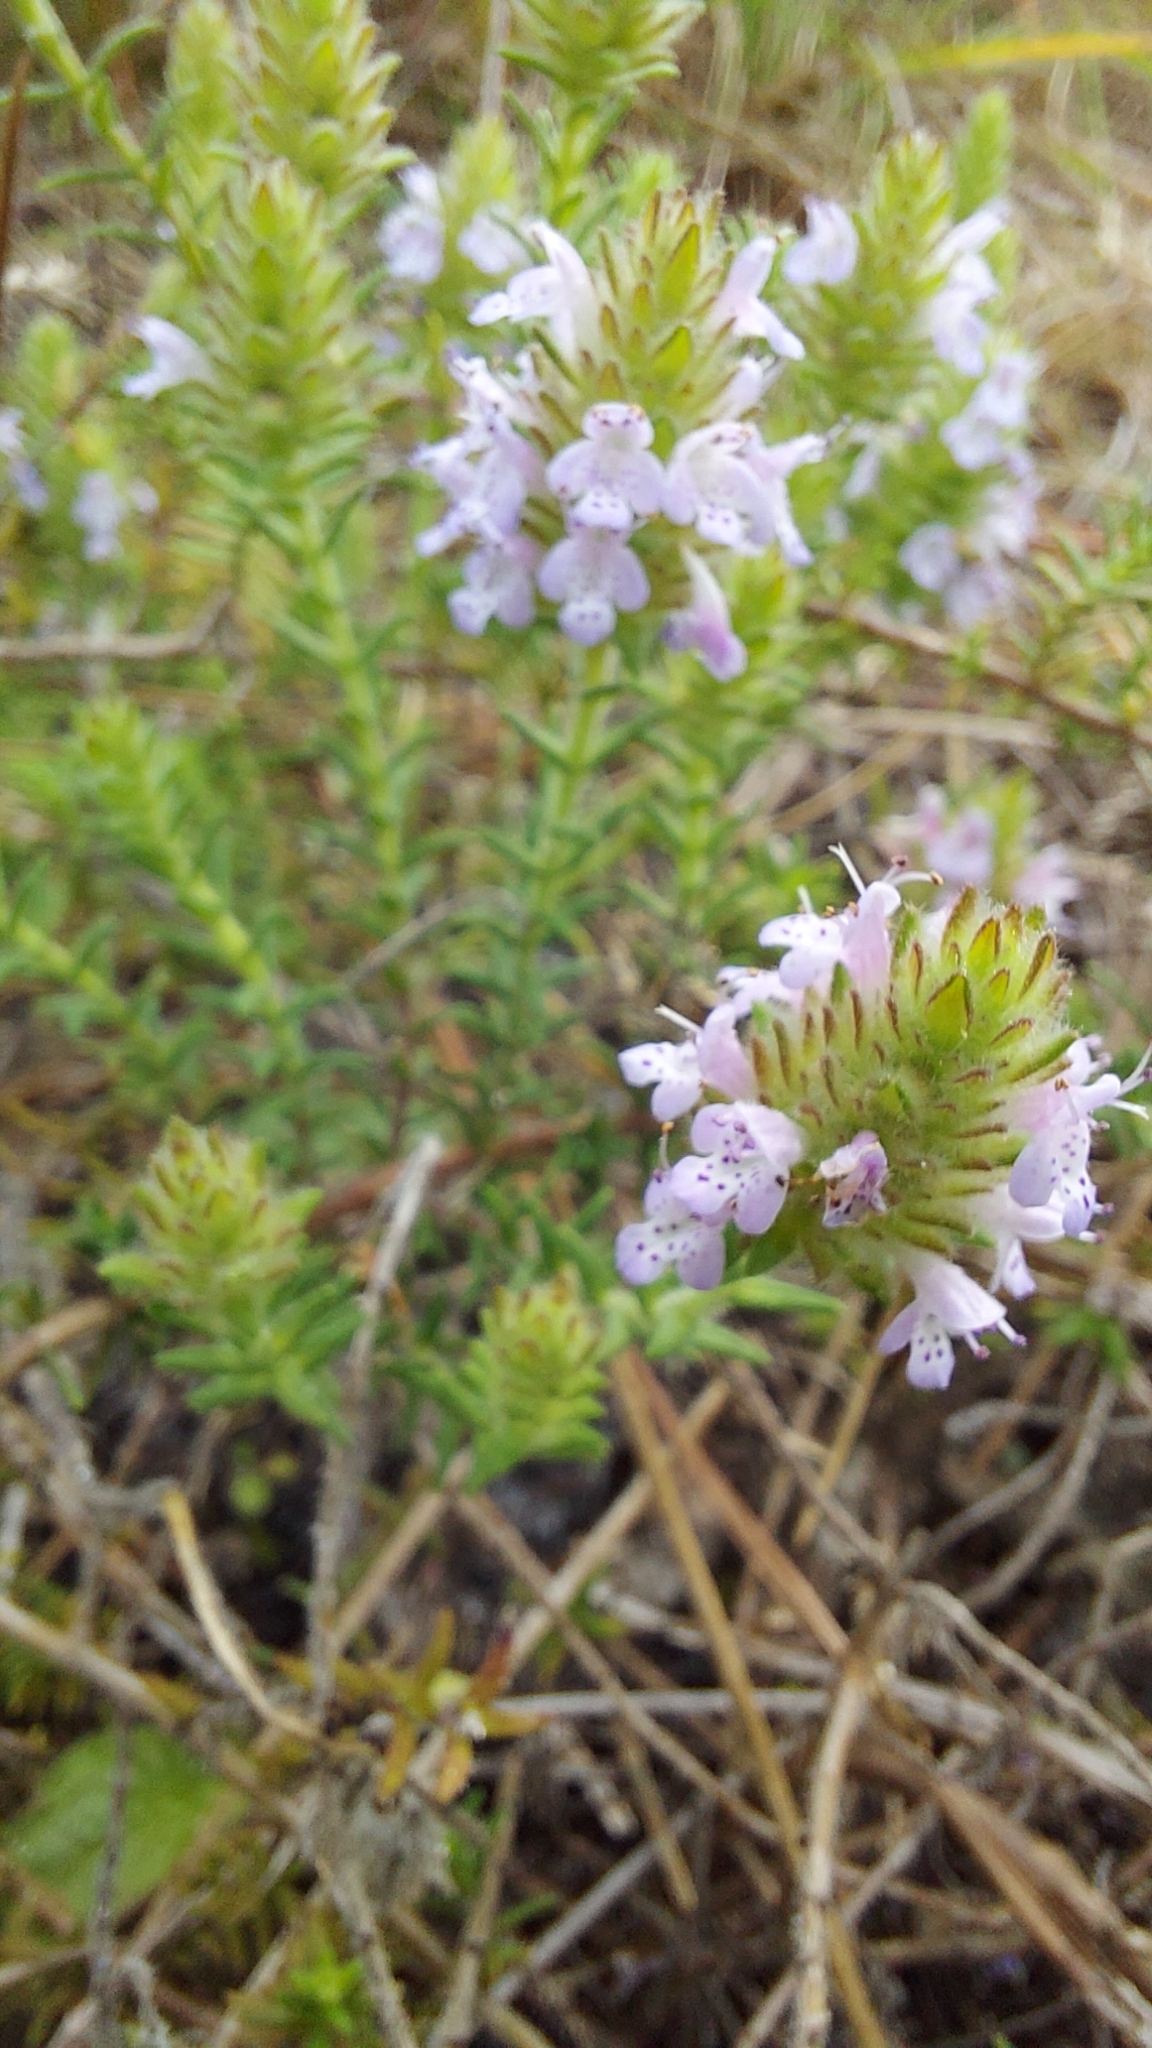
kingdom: Plantae
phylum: Tracheophyta
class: Magnoliopsida
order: Lamiales
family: Lamiaceae
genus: Piloblephis
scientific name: Piloblephis rigida
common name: Wild pennyroyal
